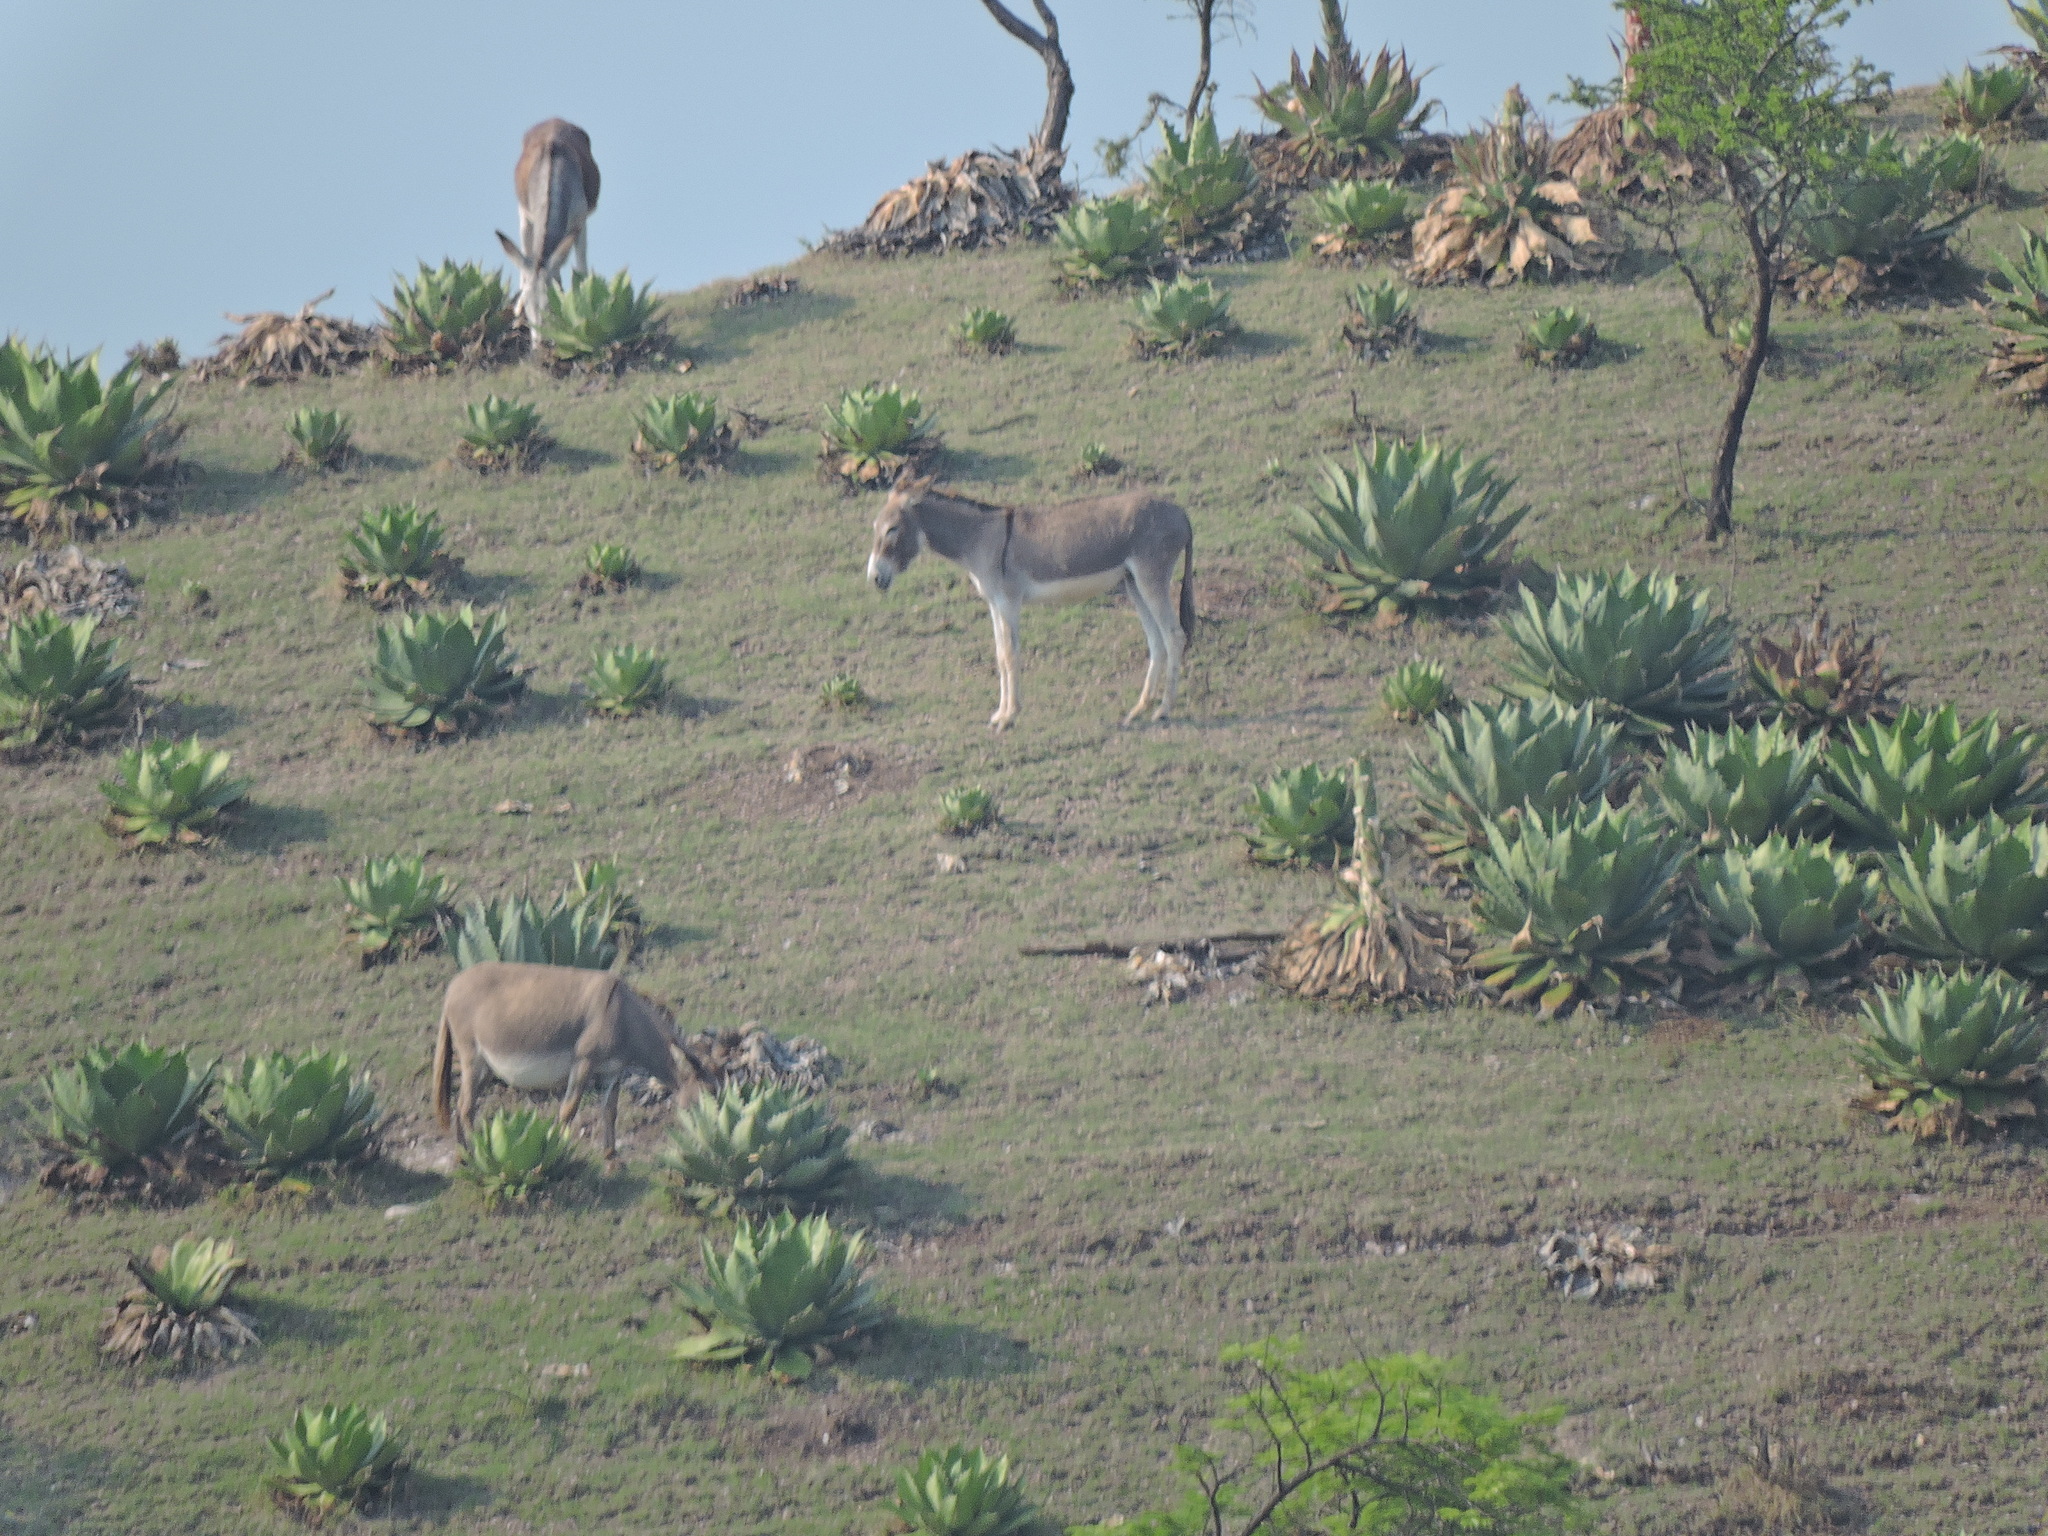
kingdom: Animalia
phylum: Chordata
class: Mammalia
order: Perissodactyla
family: Equidae
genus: Equus
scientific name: Equus asinus
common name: Ass
